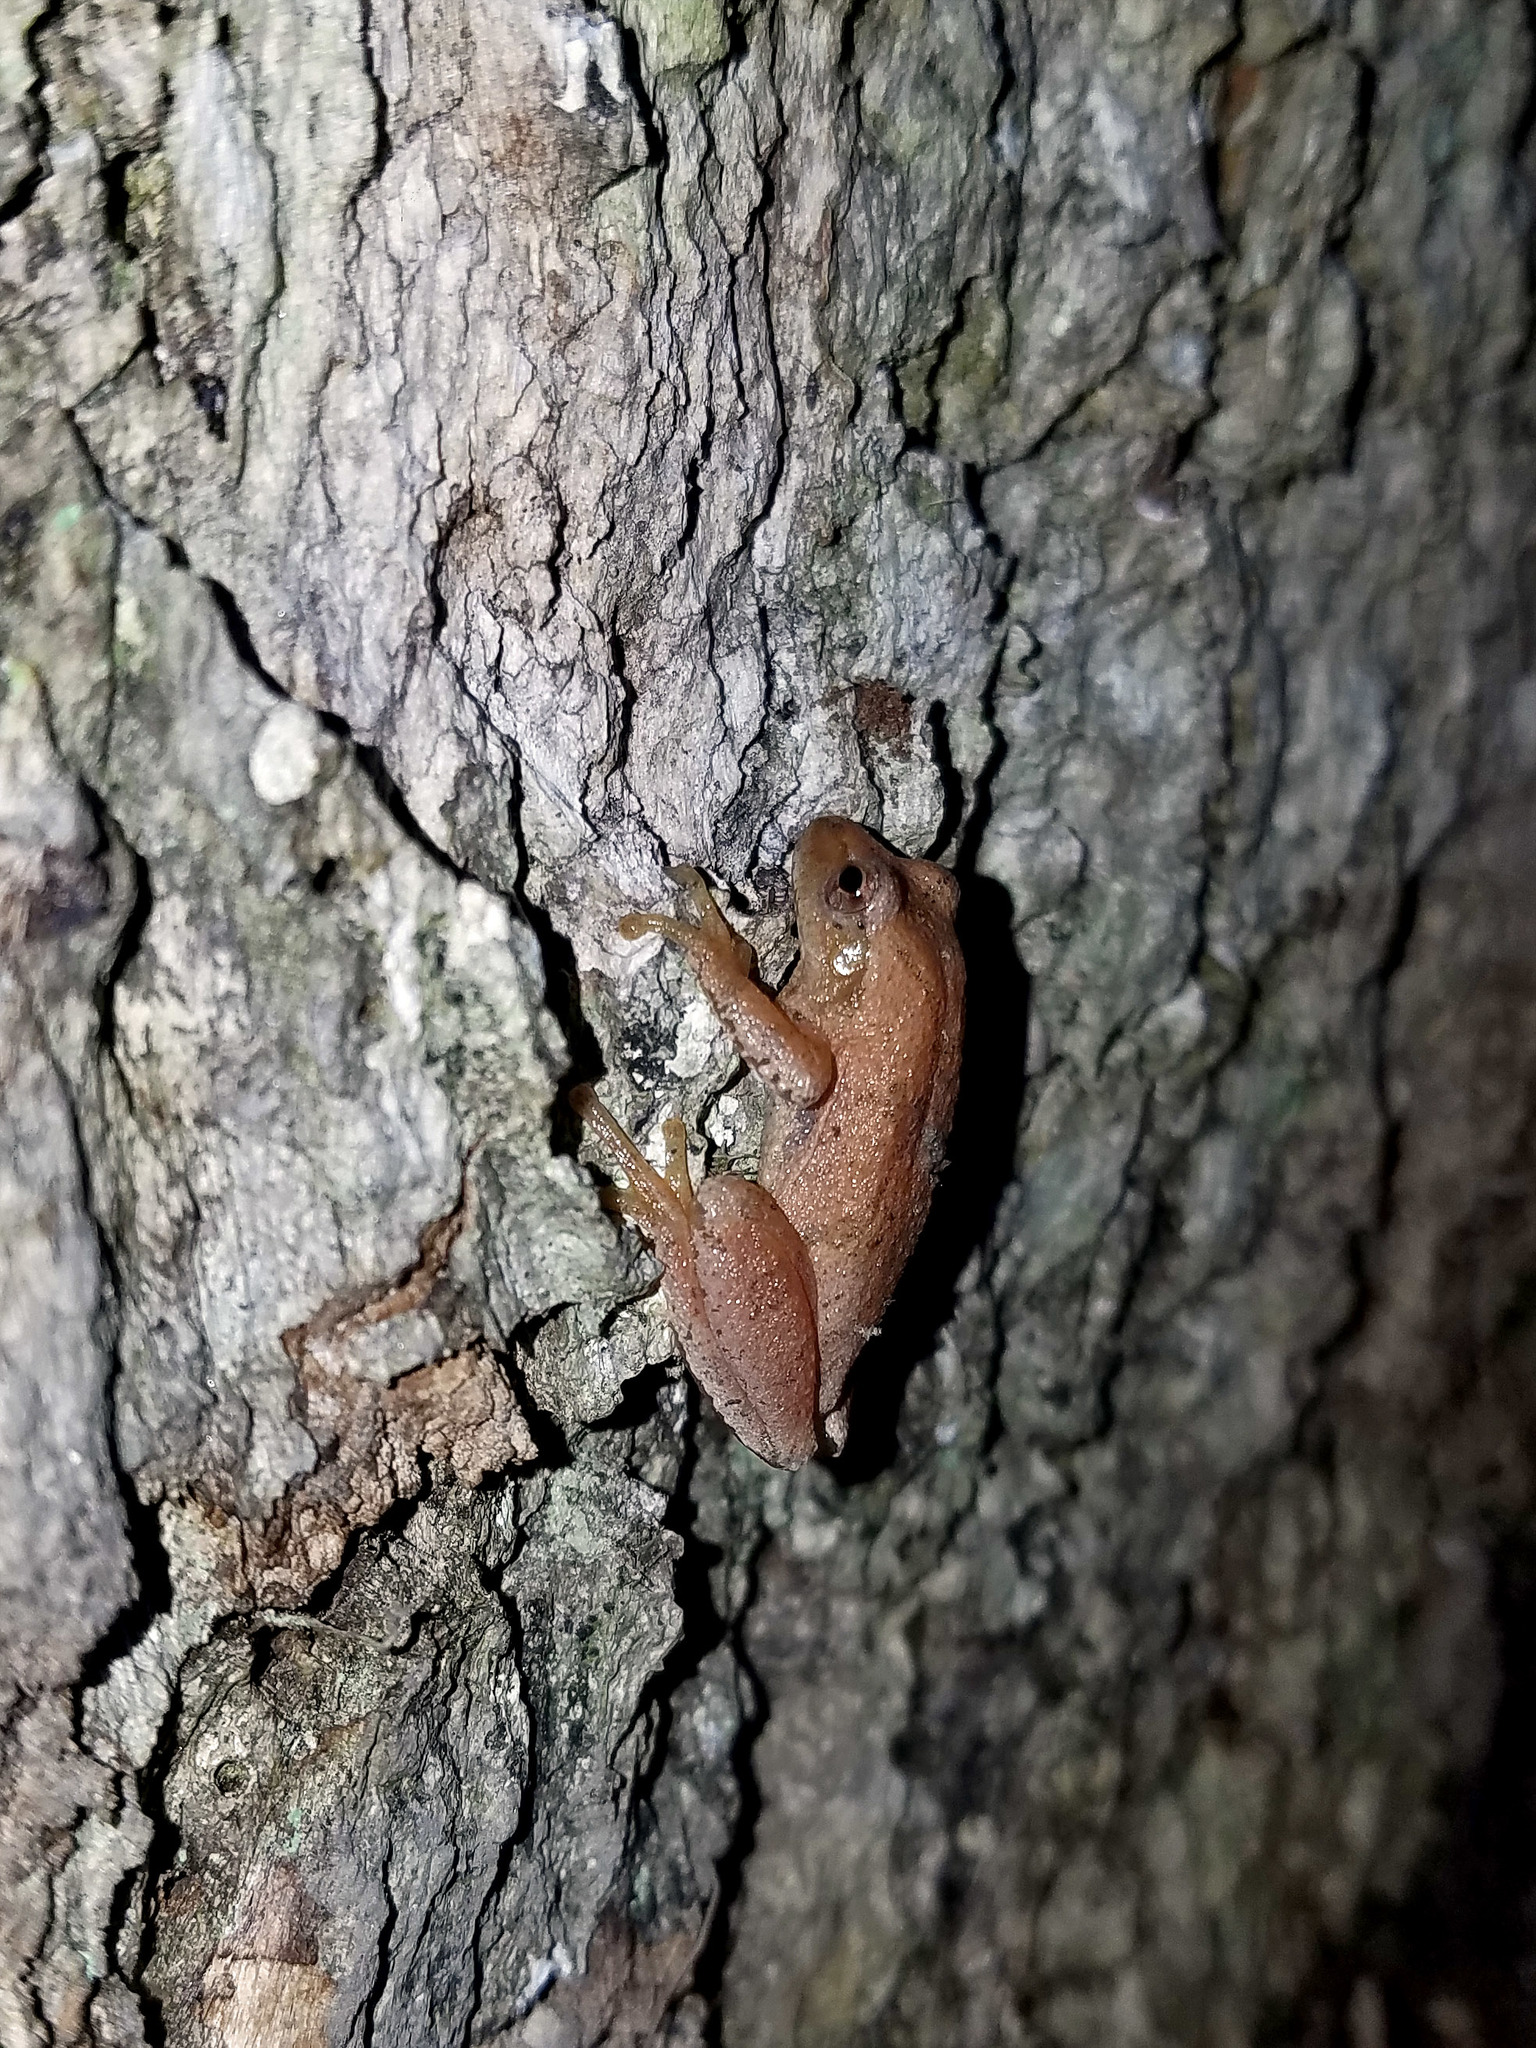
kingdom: Animalia
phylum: Chordata
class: Amphibia
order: Anura
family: Hylidae
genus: Pseudacris
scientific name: Pseudacris crucifer
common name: Spring peeper
